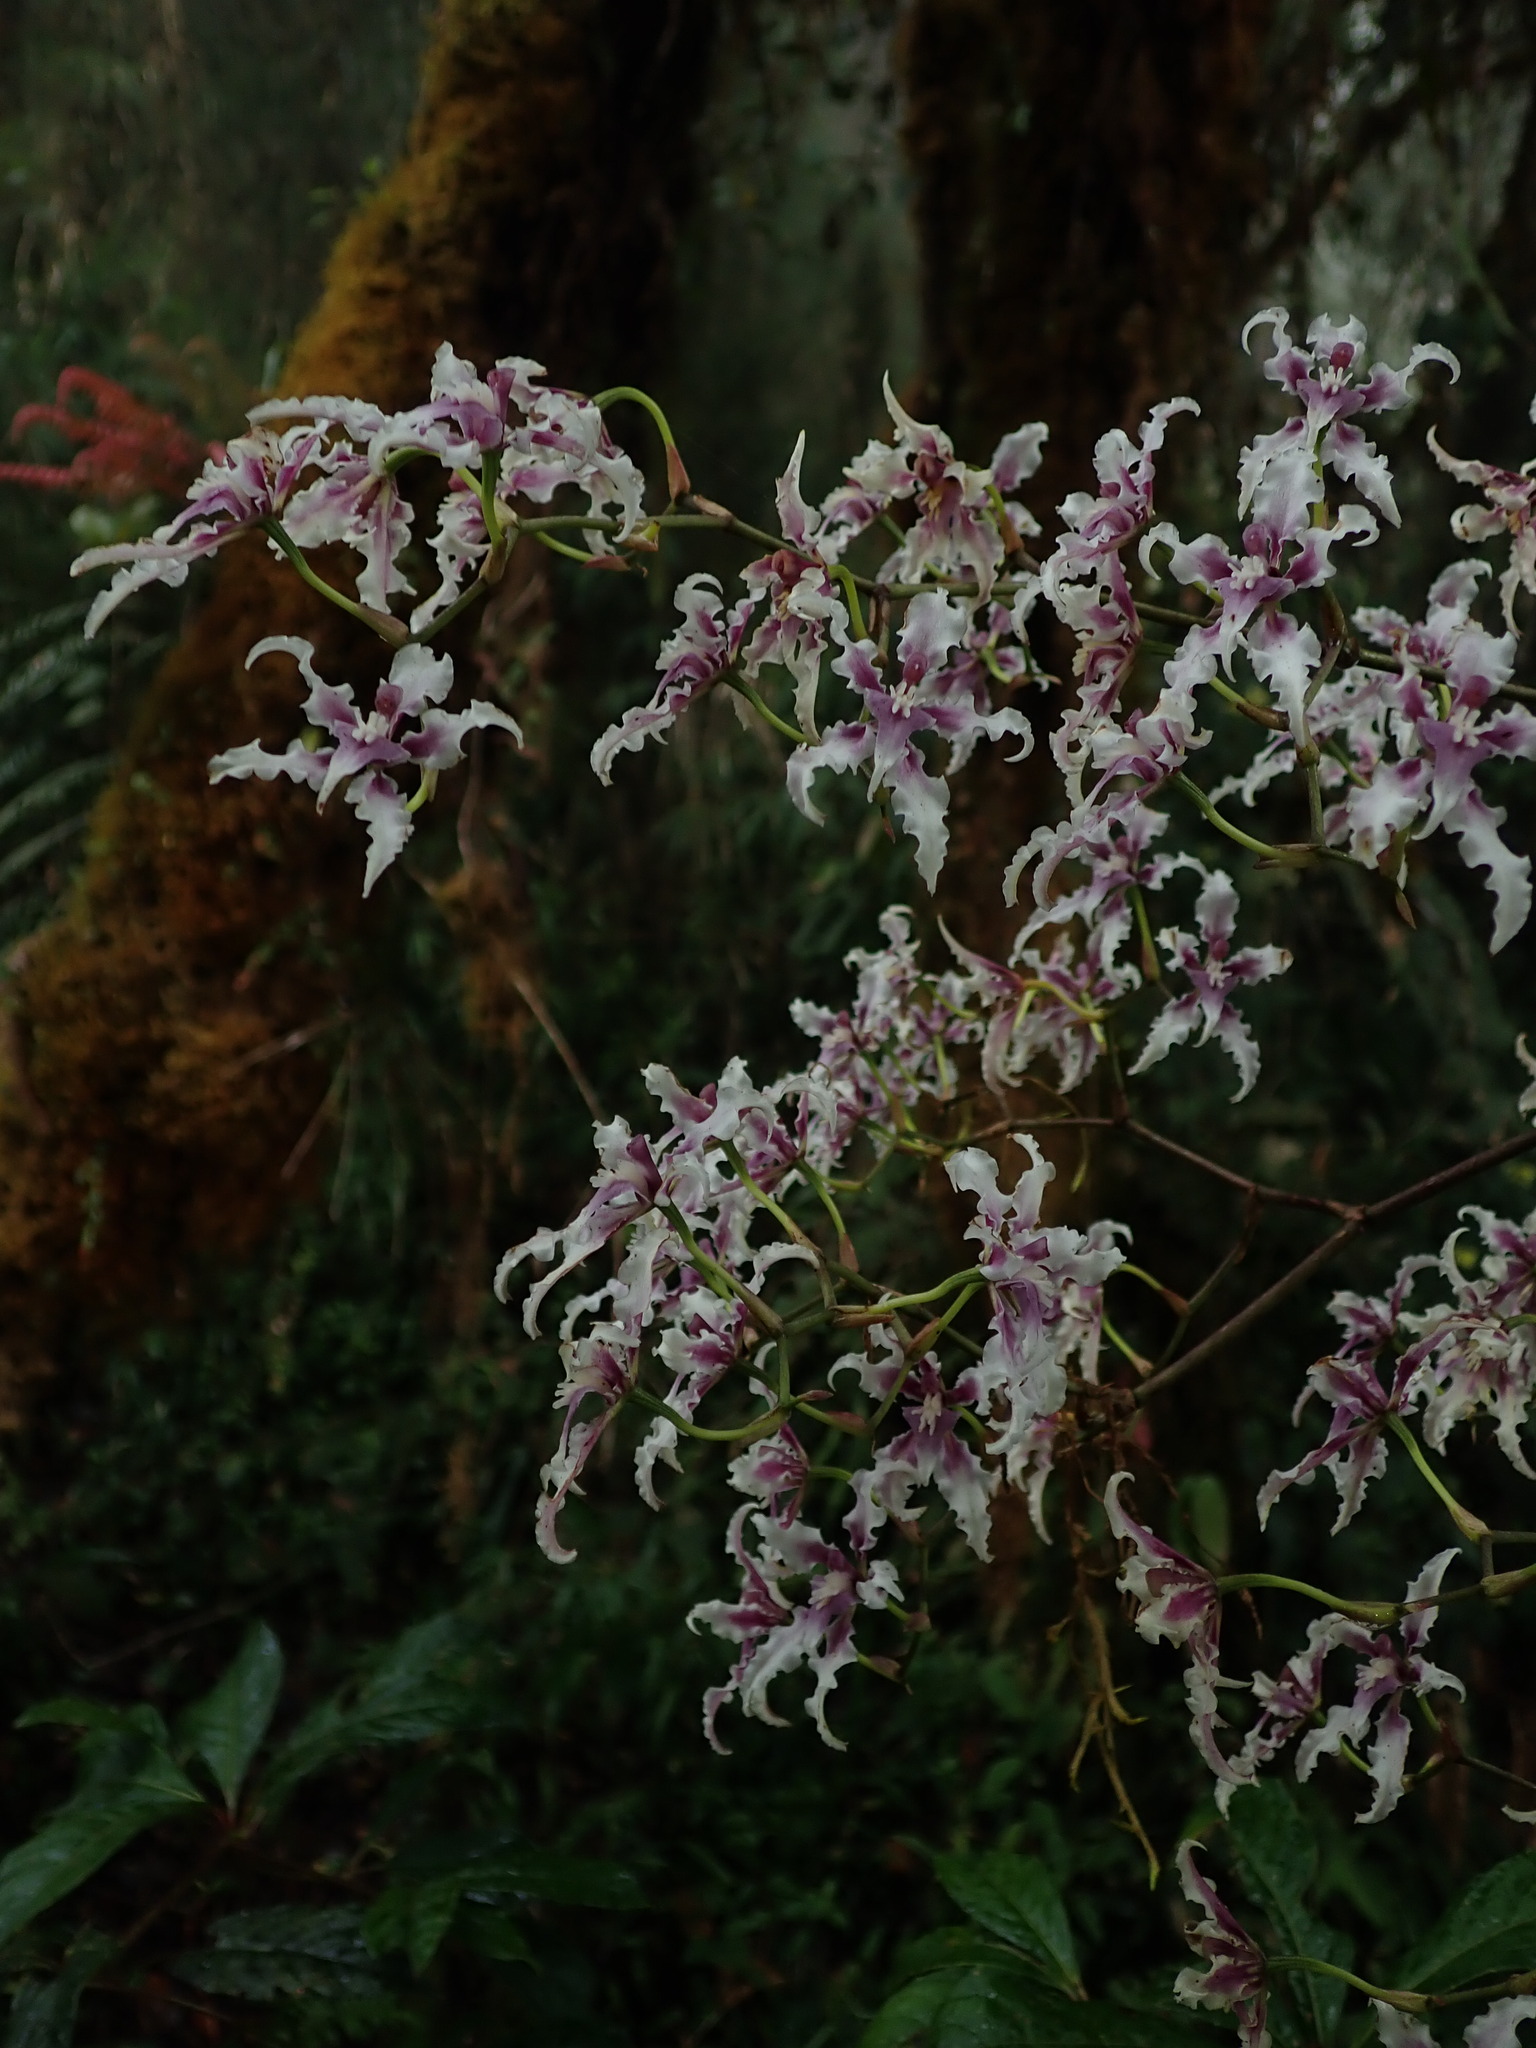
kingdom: Plantae
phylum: Tracheophyta
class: Liliopsida
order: Asparagales
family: Orchidaceae
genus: Cyrtochilum
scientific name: Cyrtochilum ramosissimum
